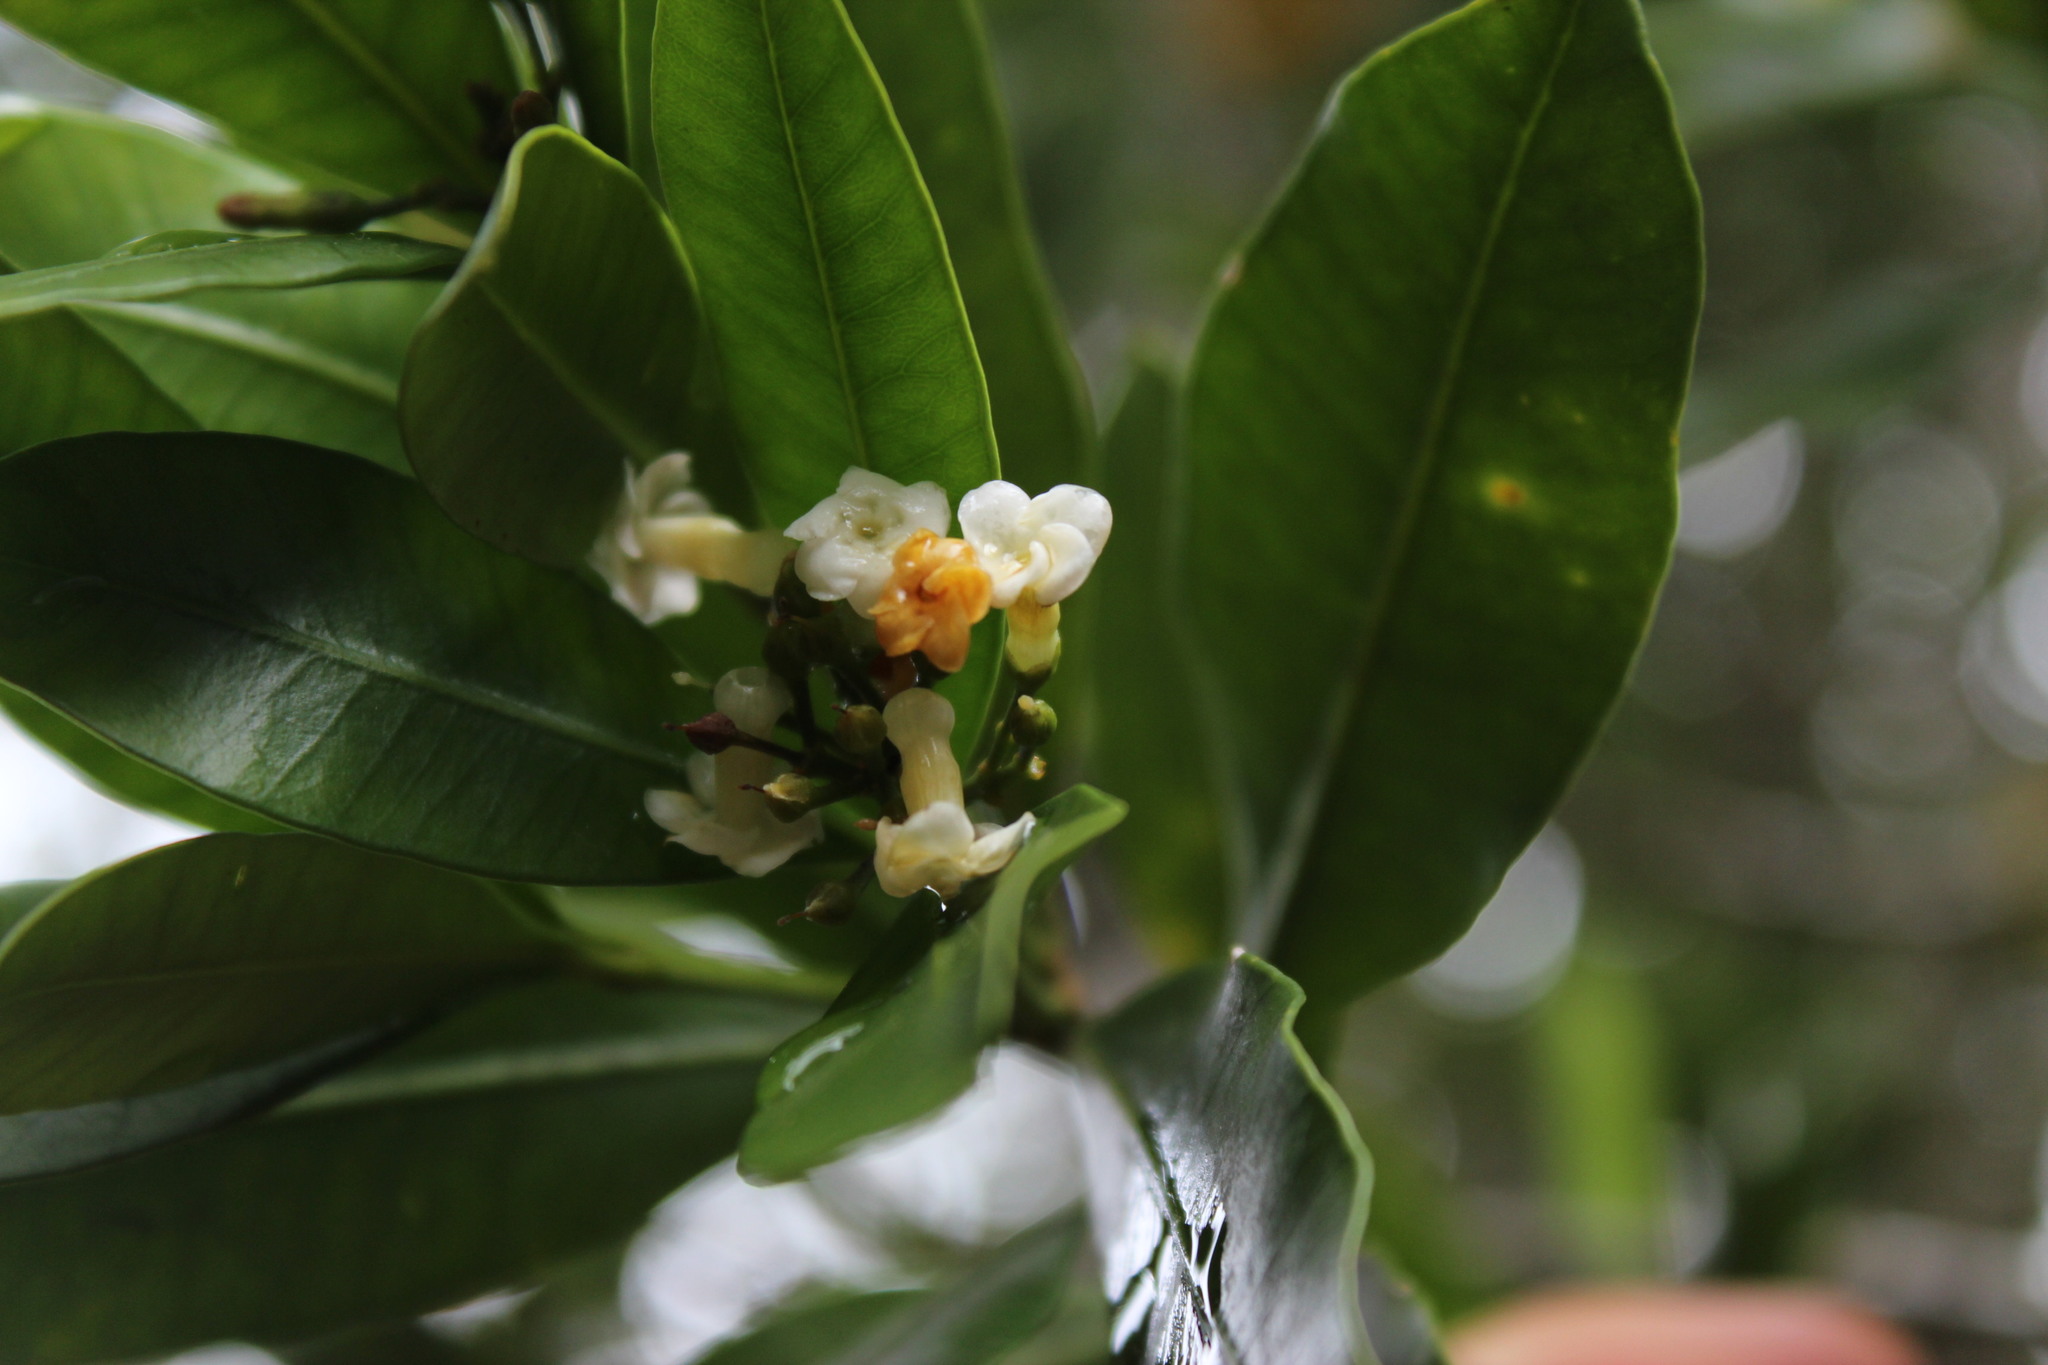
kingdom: Plantae
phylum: Tracheophyta
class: Magnoliopsida
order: Gentianales
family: Apocynaceae
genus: Gonioma
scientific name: Gonioma kamassi
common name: Kamassi
